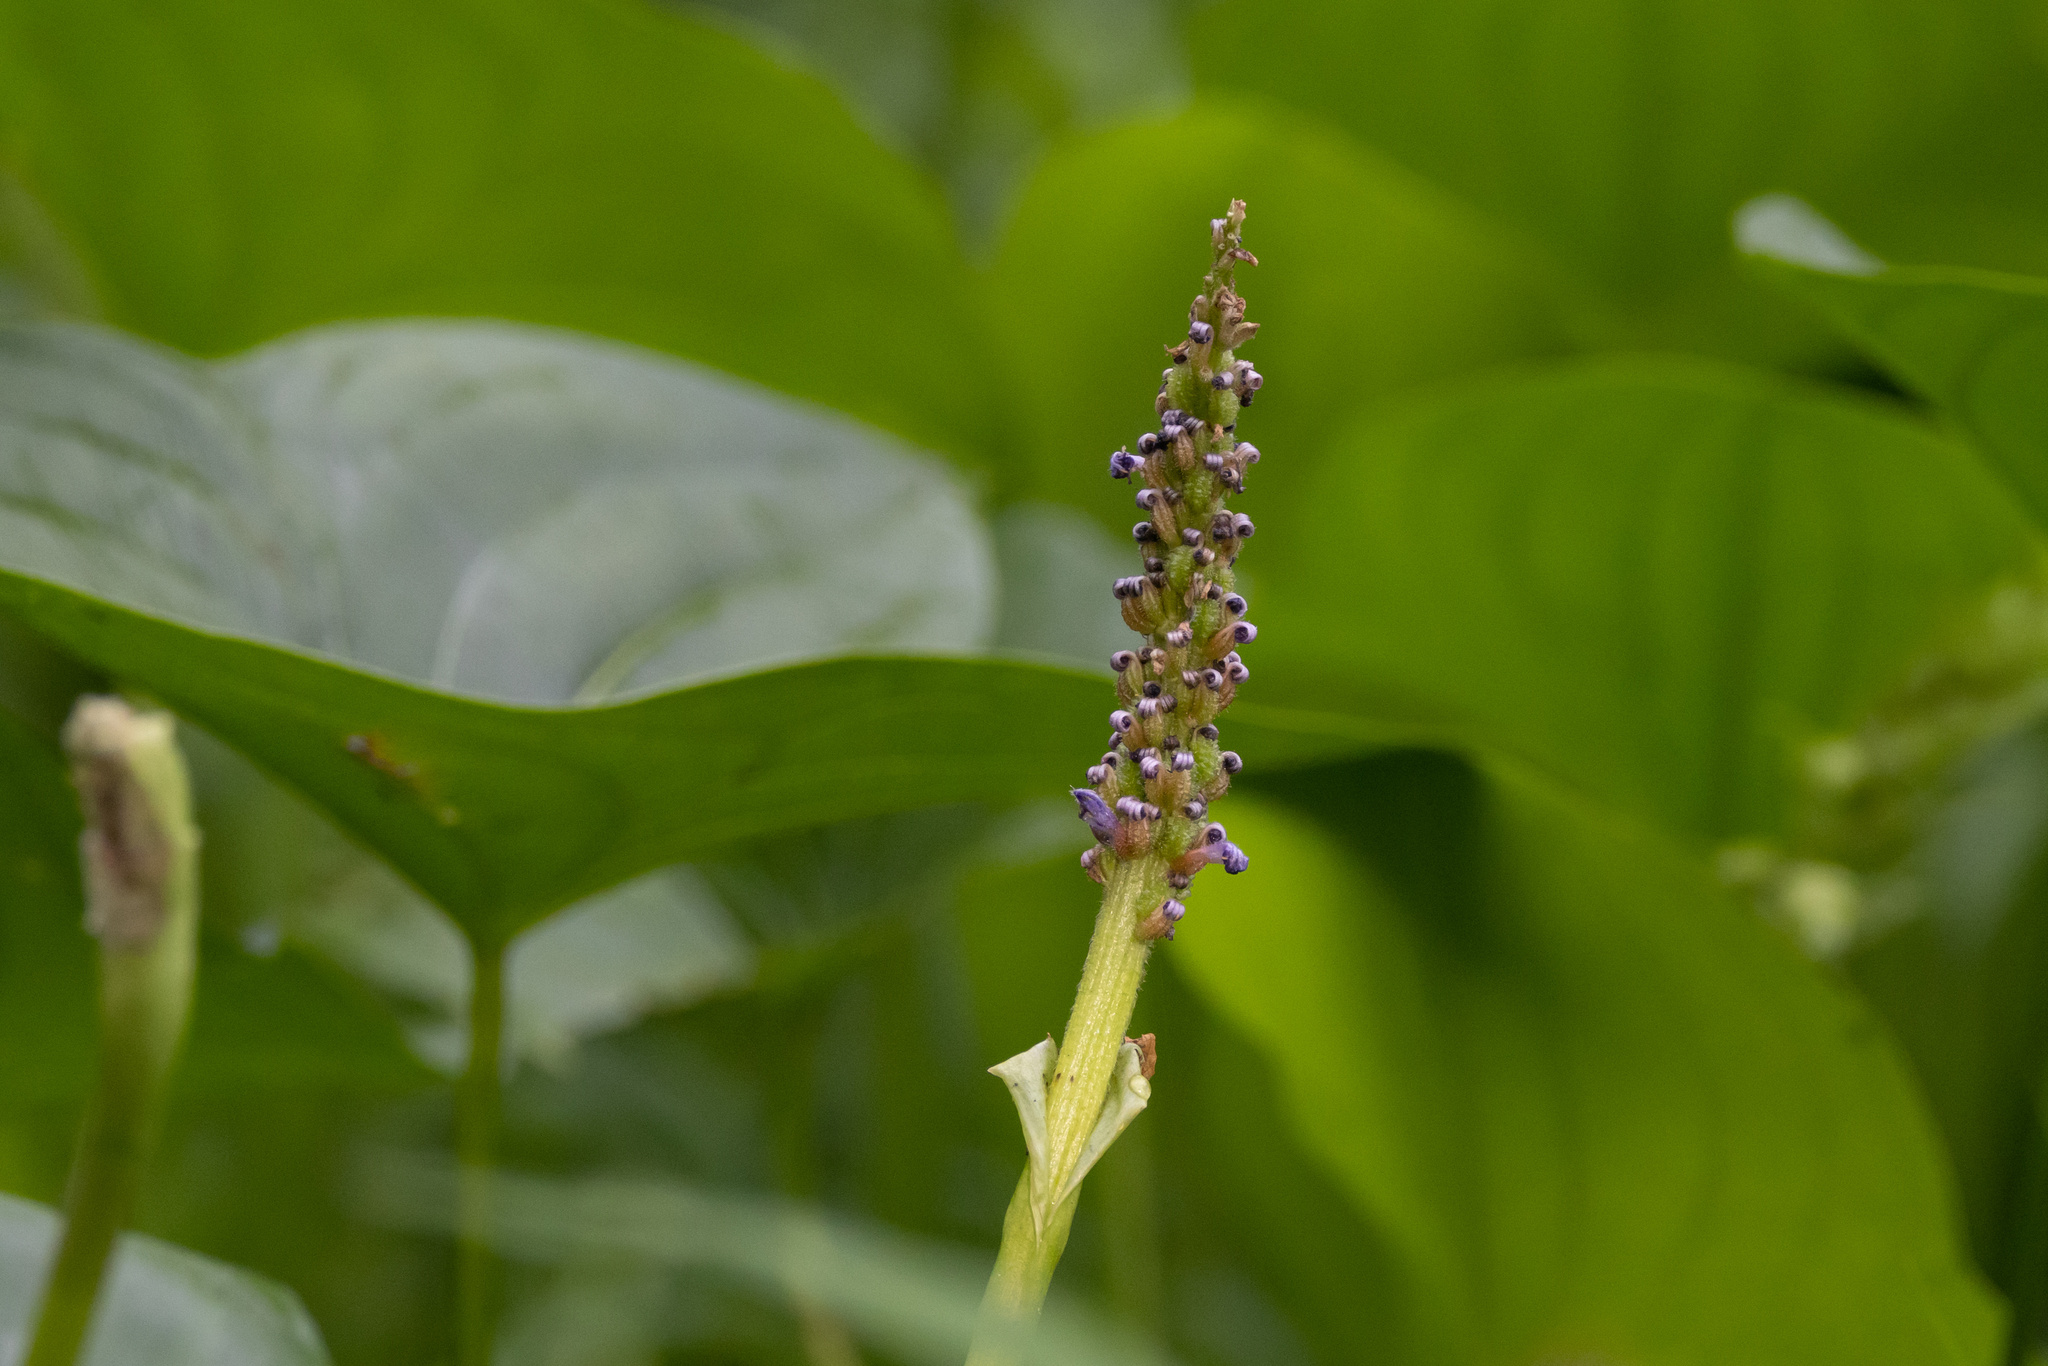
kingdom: Plantae
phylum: Tracheophyta
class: Liliopsida
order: Commelinales
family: Pontederiaceae
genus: Pontederia
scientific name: Pontederia cordata
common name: Pickerelweed
